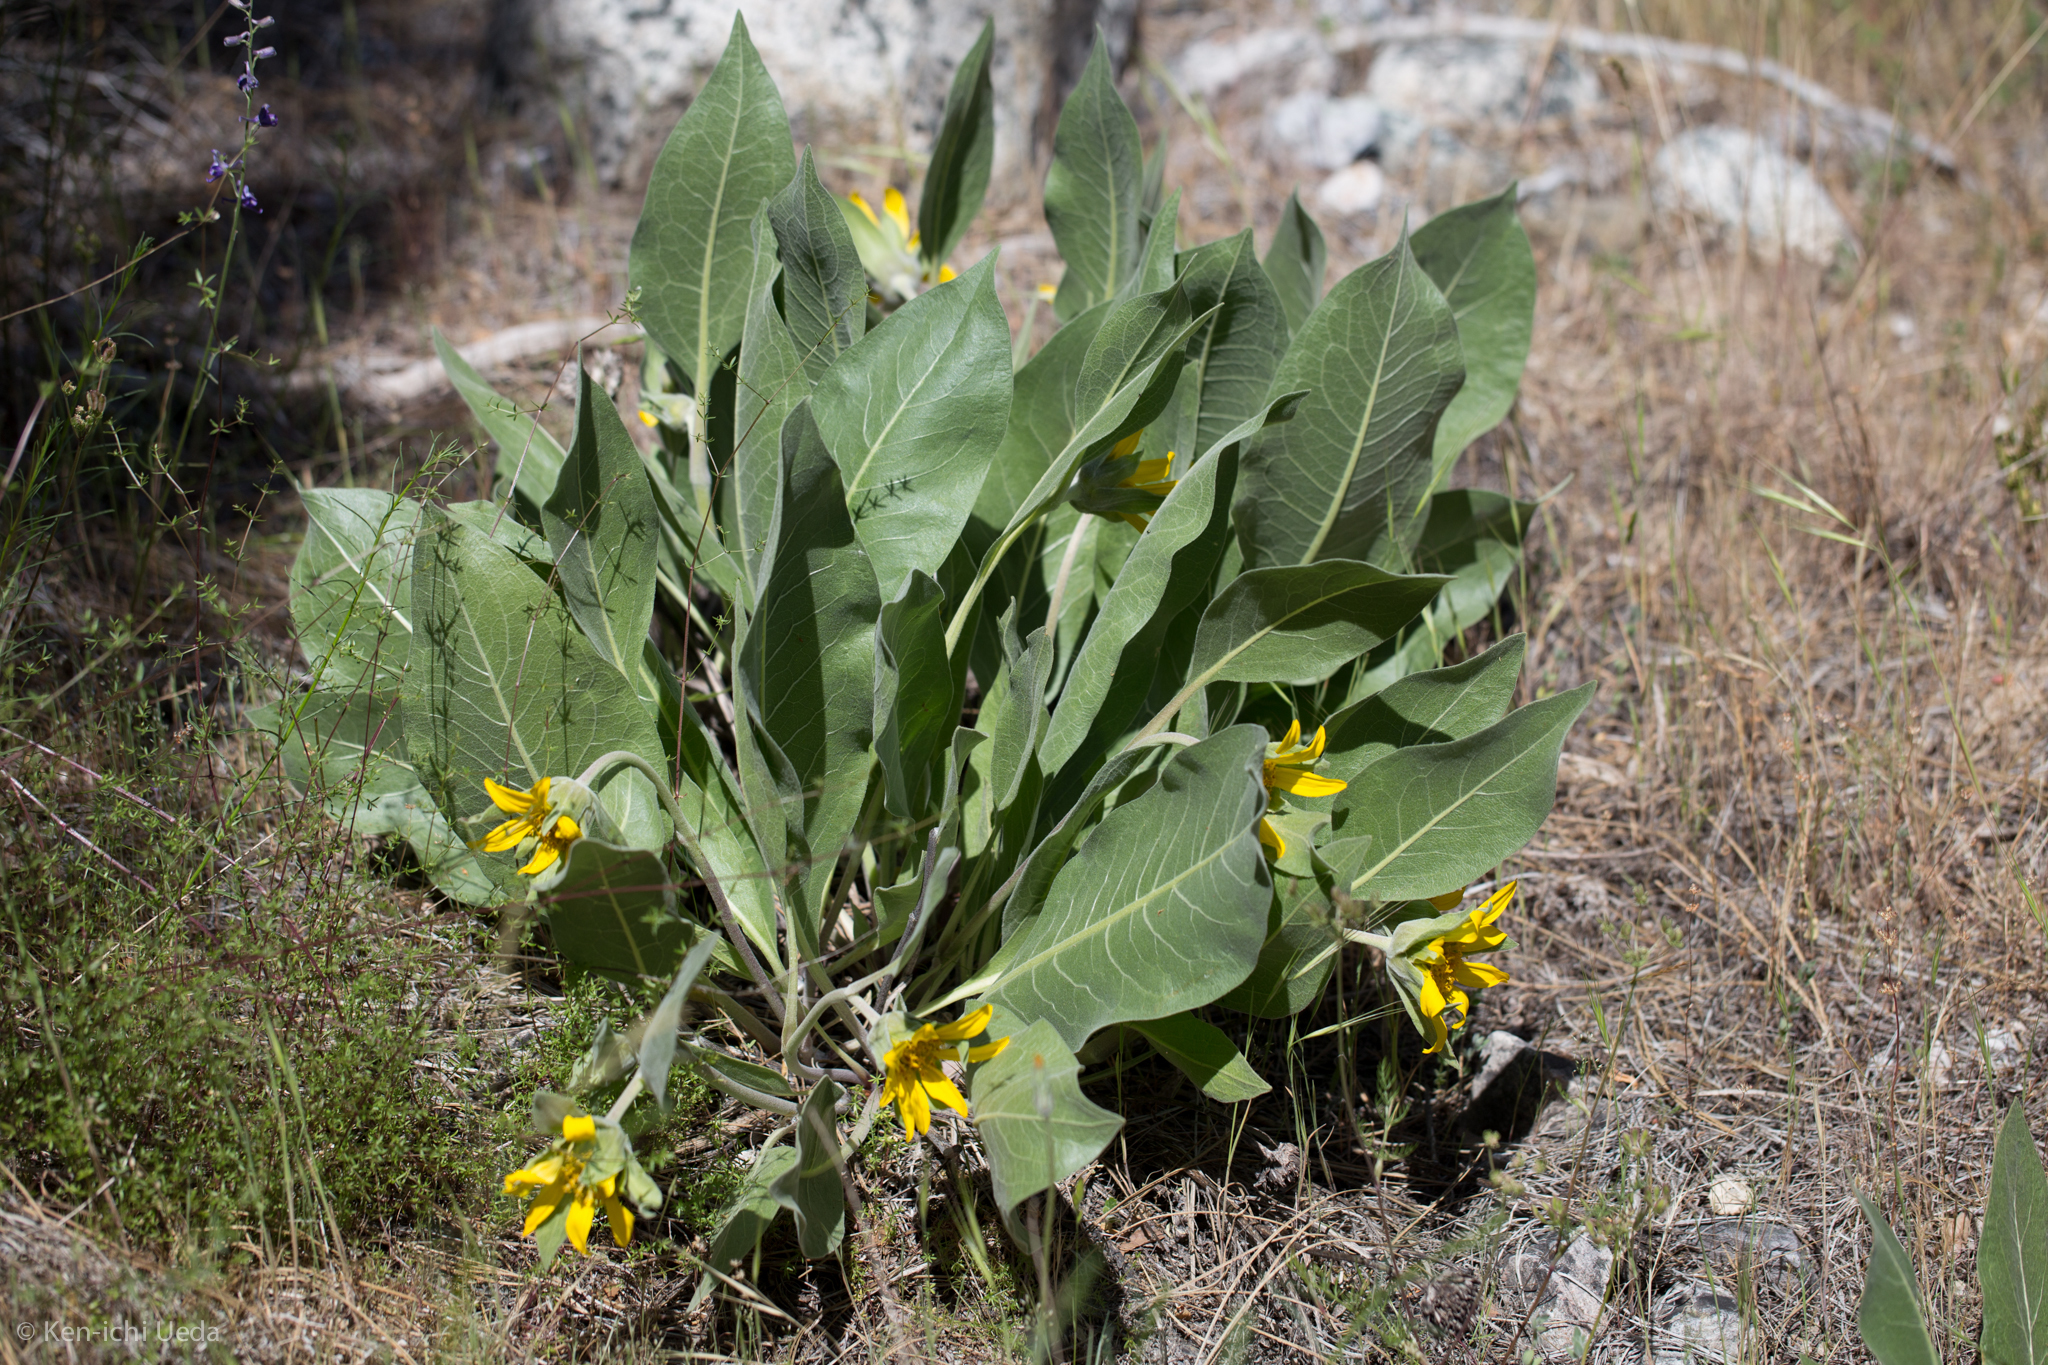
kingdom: Plantae
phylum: Tracheophyta
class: Magnoliopsida
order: Asterales
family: Asteraceae
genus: Wyethia
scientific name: Wyethia helenioides
